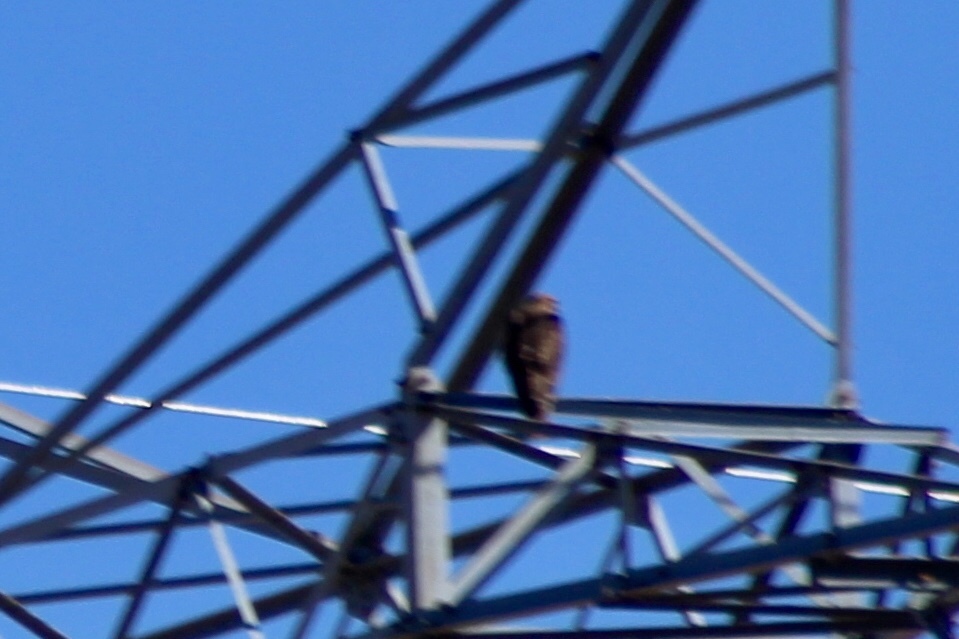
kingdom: Animalia
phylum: Chordata
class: Aves
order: Accipitriformes
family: Accipitridae
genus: Buteo
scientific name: Buteo jamaicensis
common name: Red-tailed hawk
